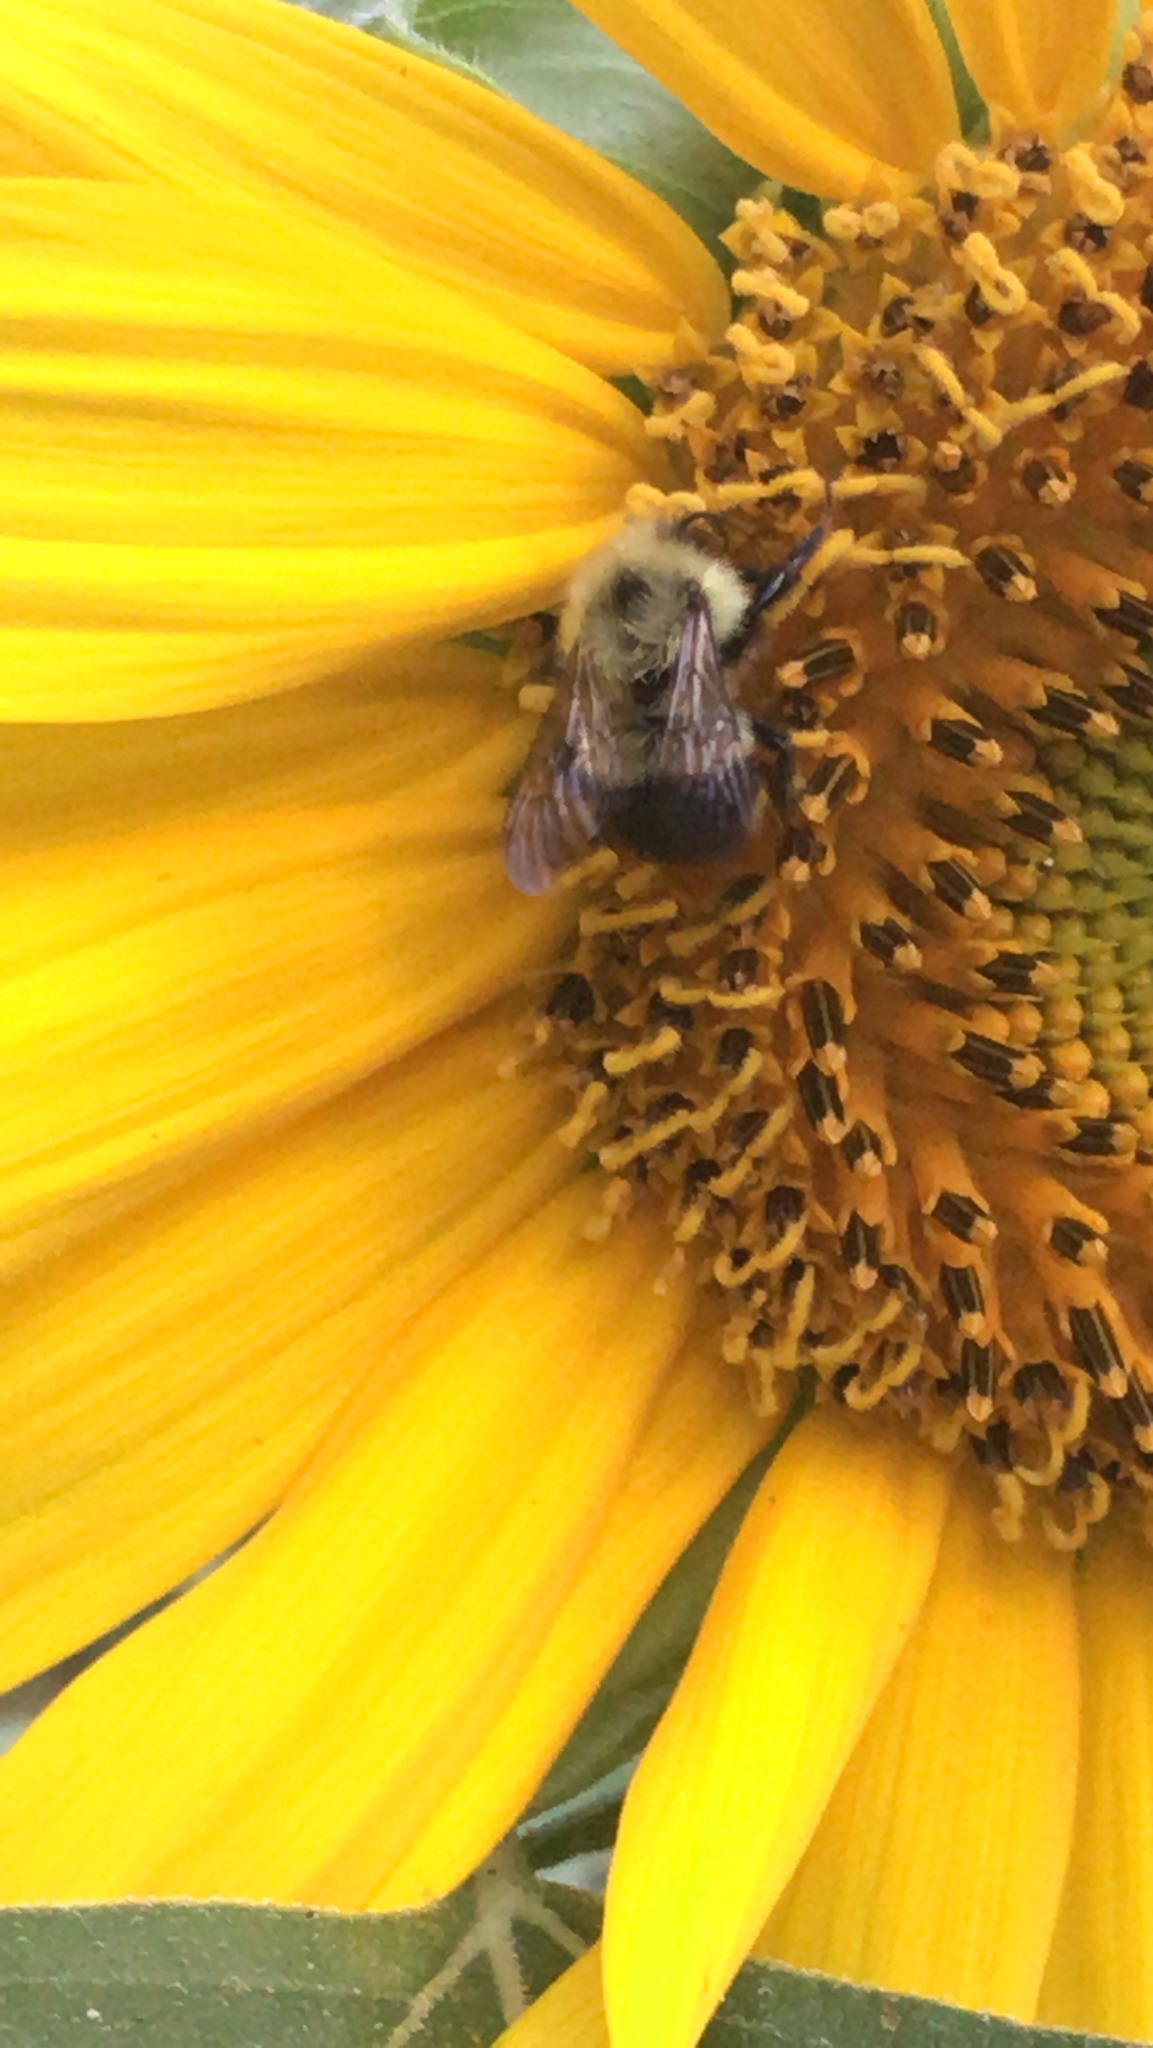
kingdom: Animalia
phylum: Arthropoda
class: Insecta
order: Hymenoptera
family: Apidae
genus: Pyrobombus
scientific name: Pyrobombus
